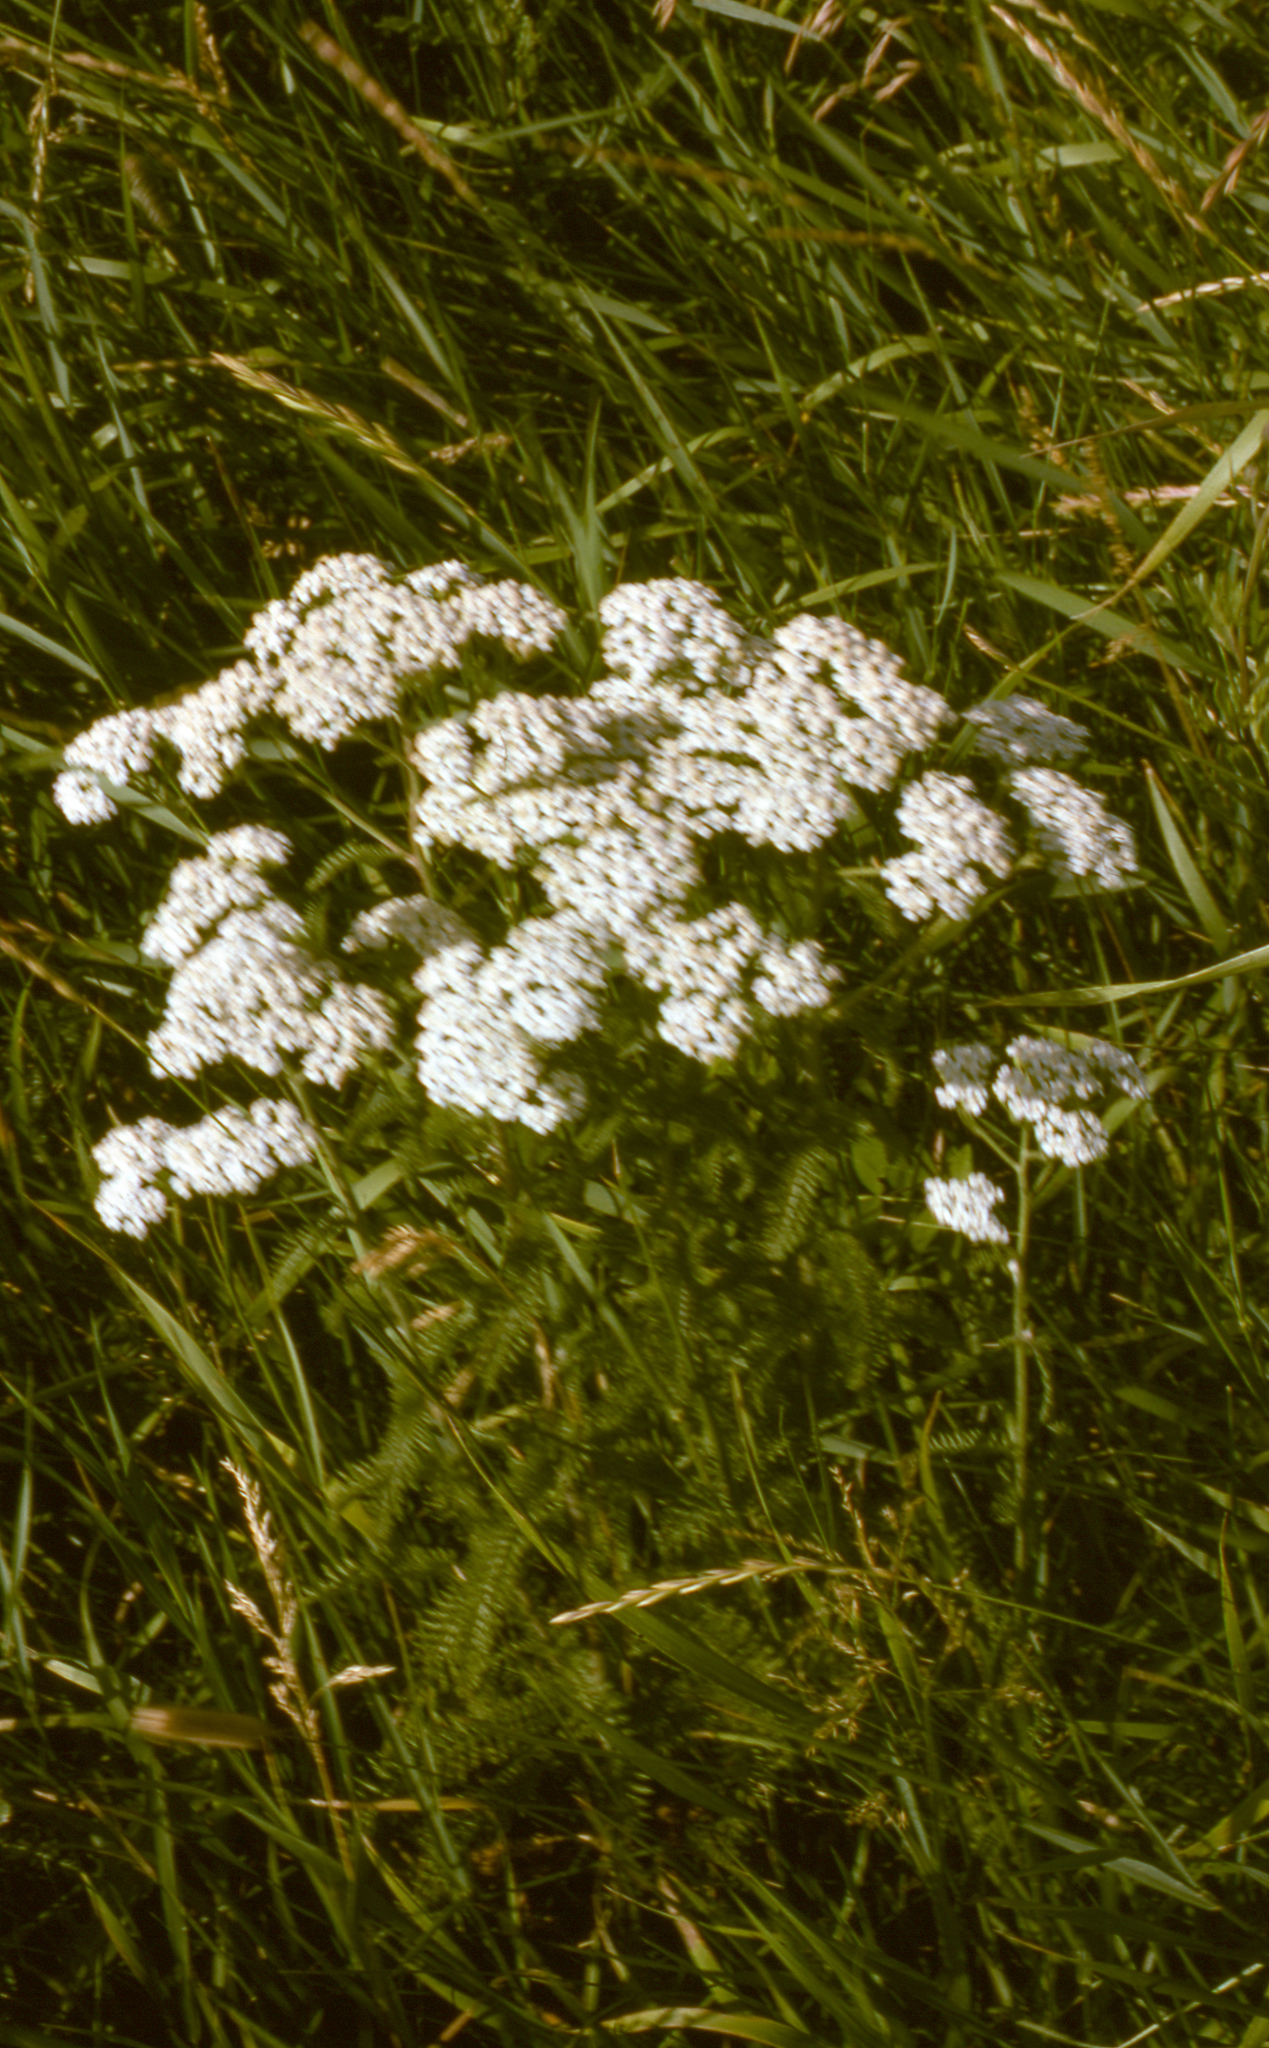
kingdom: Plantae
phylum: Tracheophyta
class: Magnoliopsida
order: Asterales
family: Asteraceae
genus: Achillea
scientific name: Achillea millefolium
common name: Yarrow
